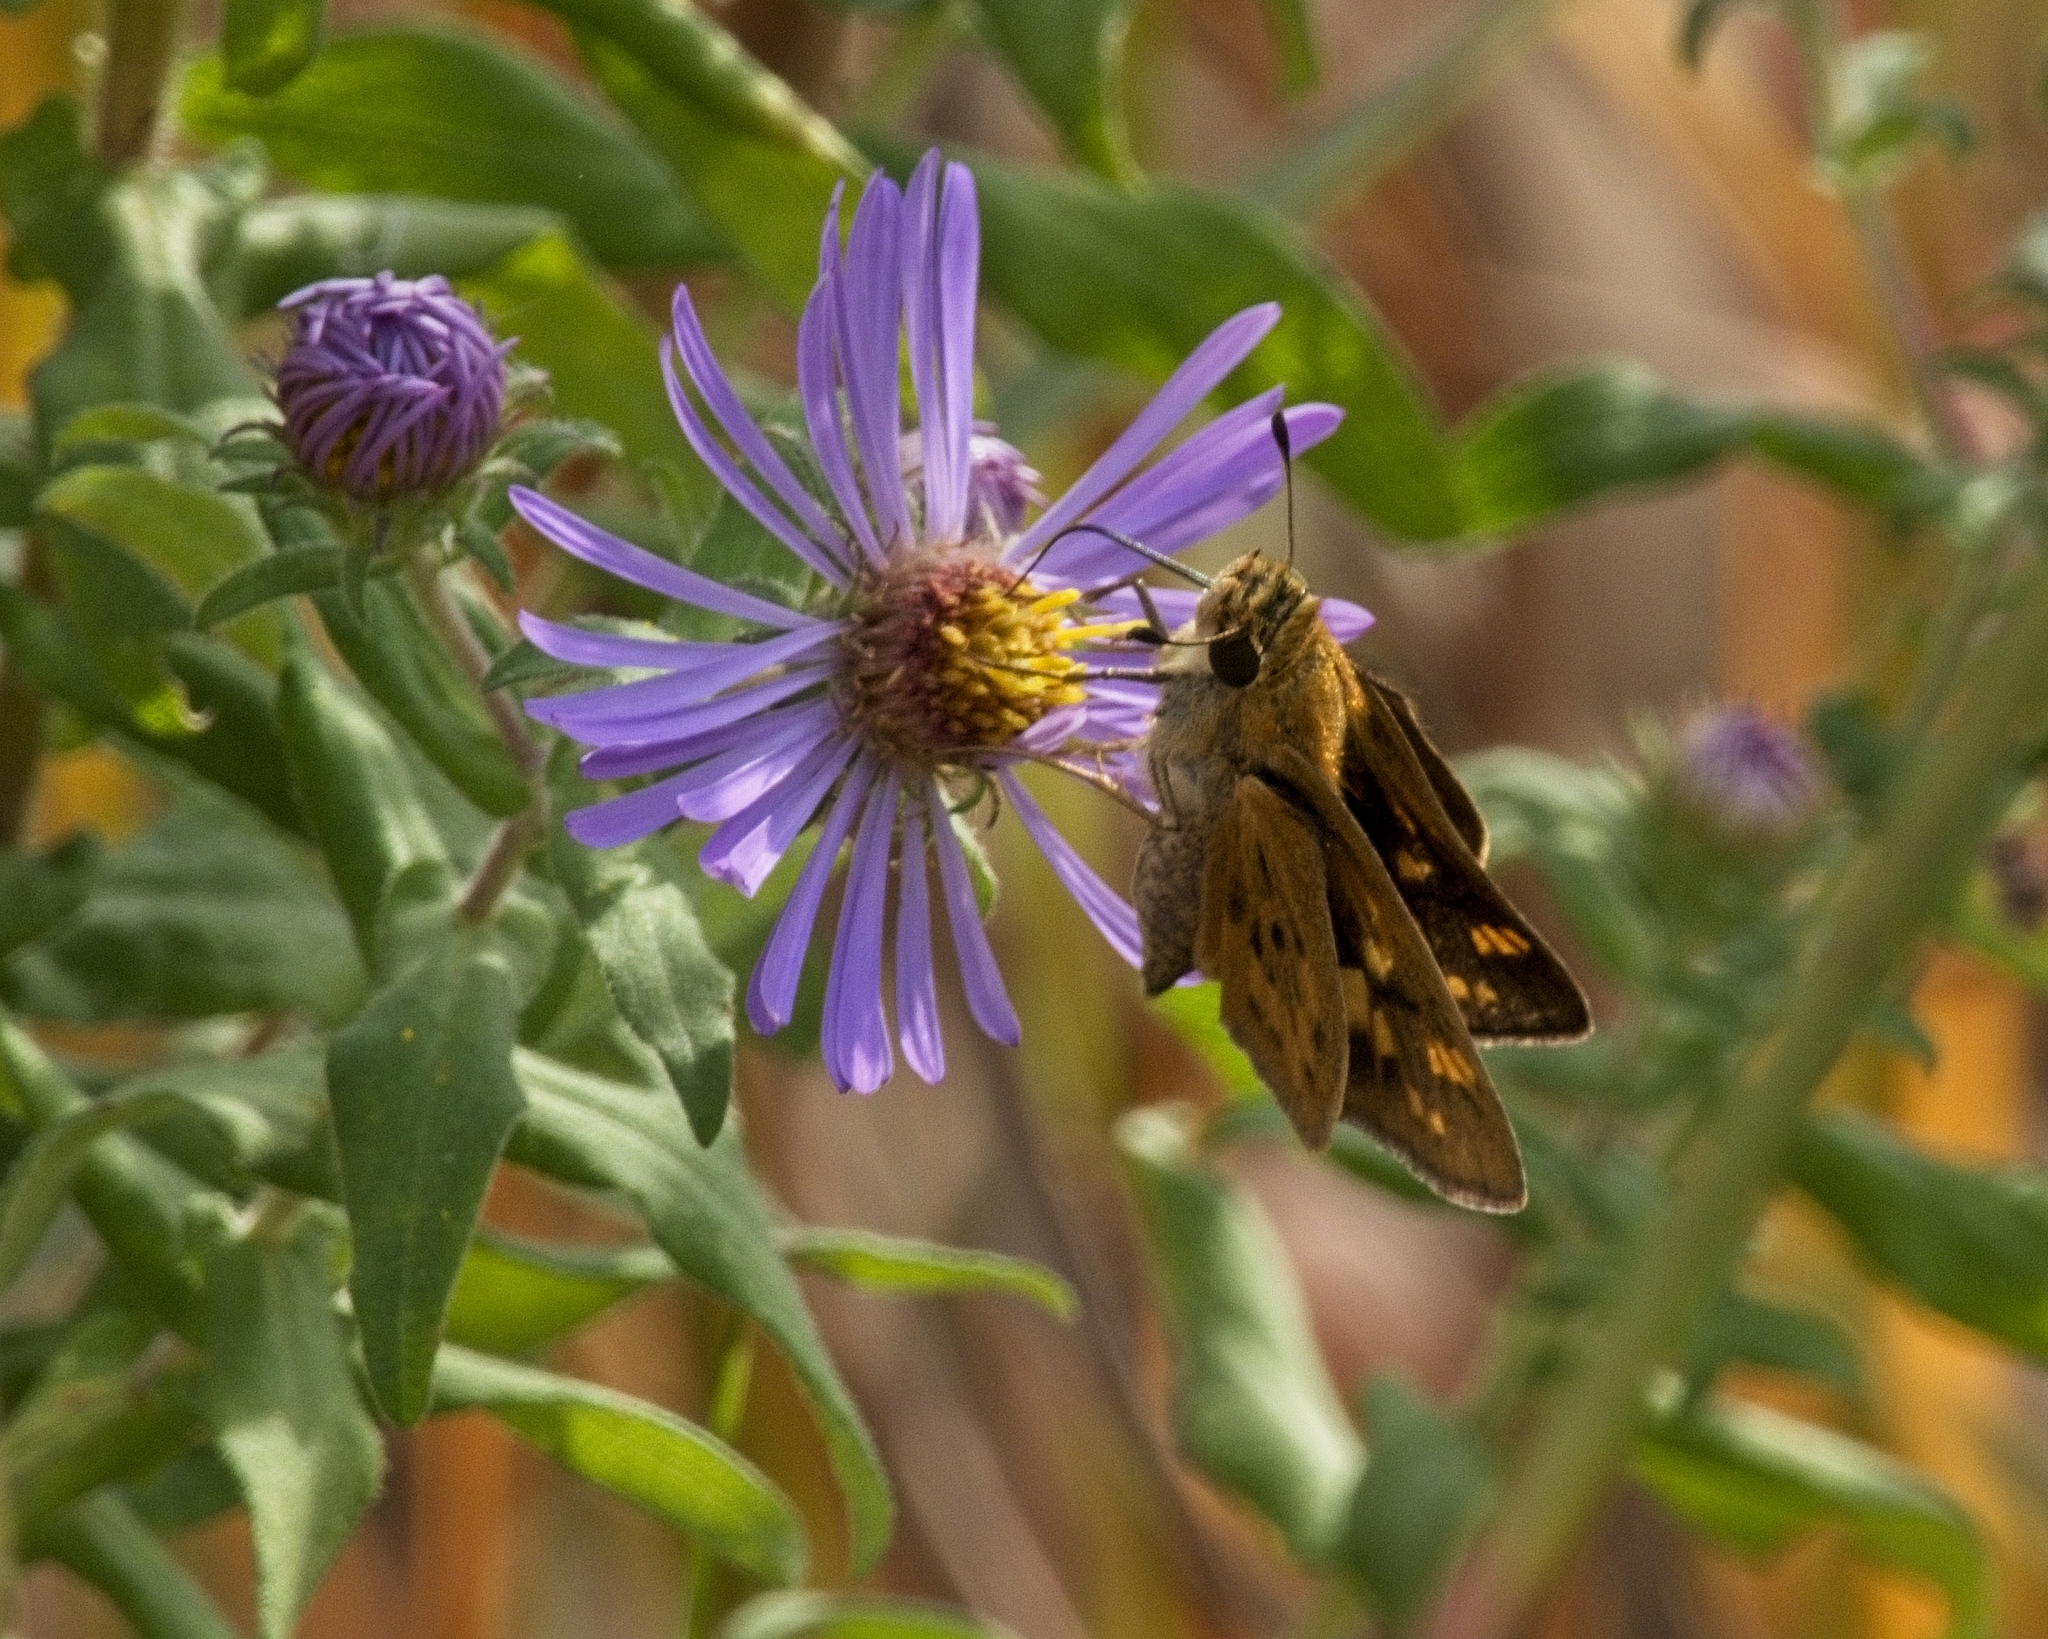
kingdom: Animalia
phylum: Arthropoda
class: Insecta
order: Lepidoptera
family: Hesperiidae
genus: Hylephila
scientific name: Hylephila phyleus
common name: Fiery skipper
